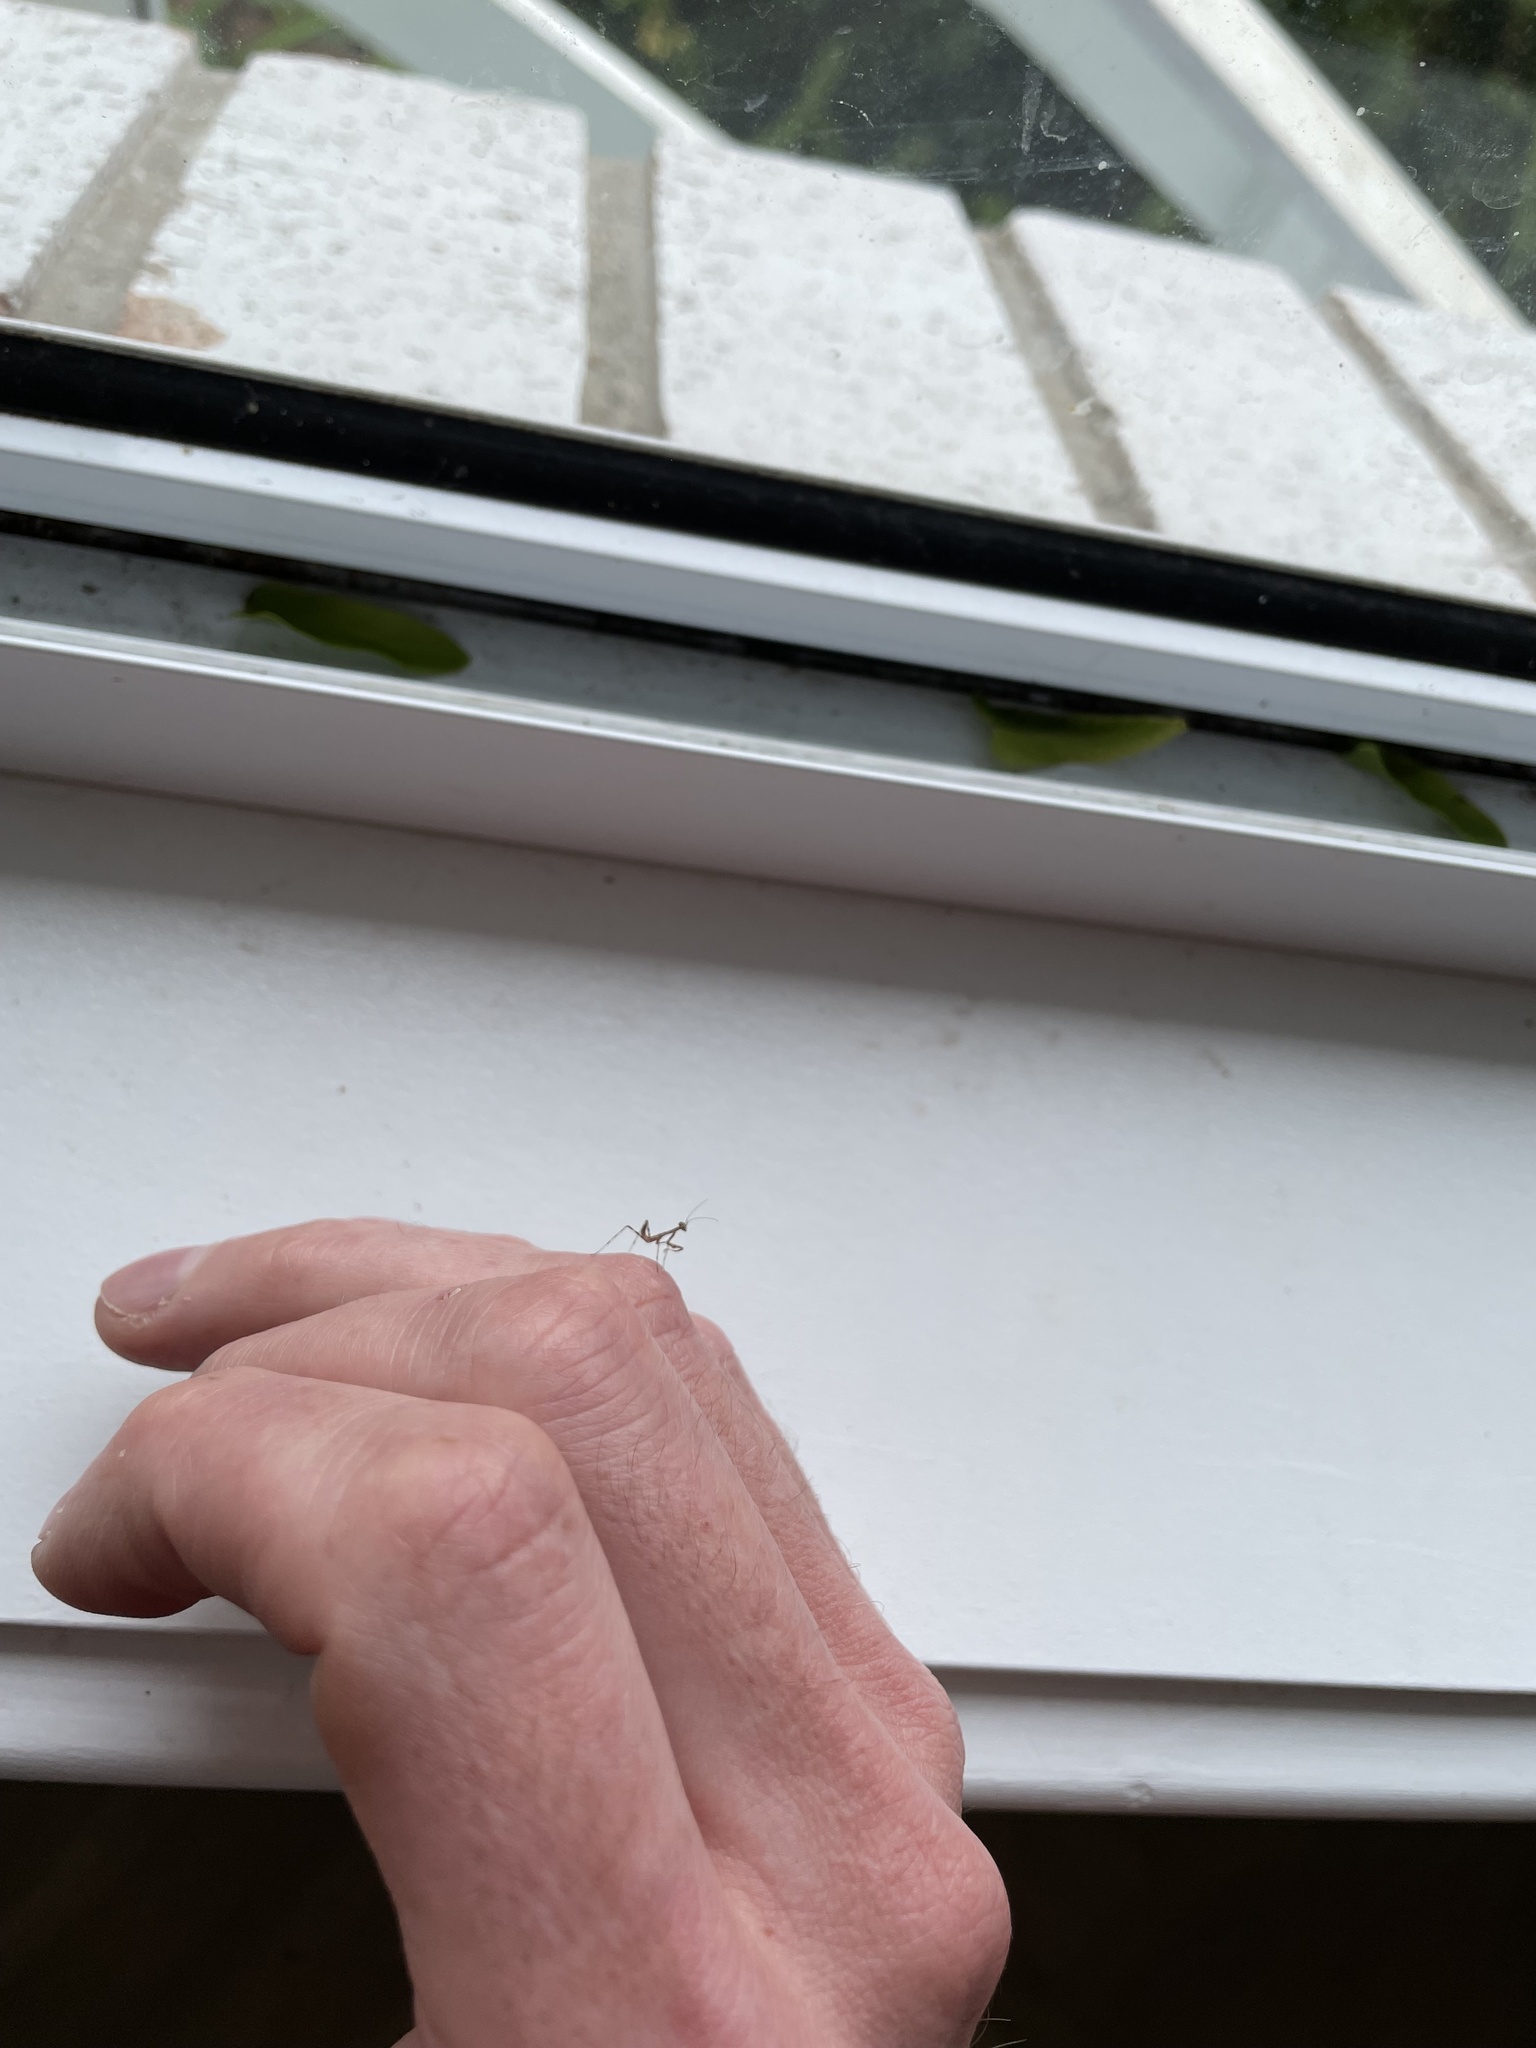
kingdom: Animalia
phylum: Arthropoda
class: Insecta
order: Mantodea
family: Miomantidae
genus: Miomantis
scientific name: Miomantis caffra
